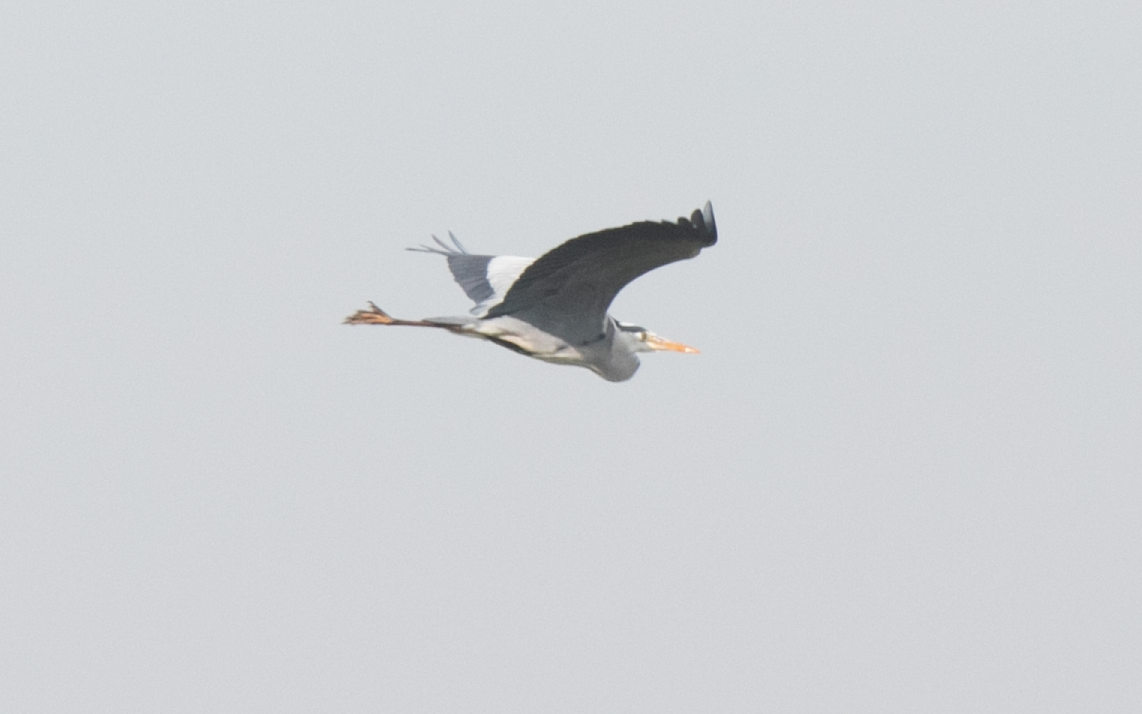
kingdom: Animalia
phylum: Chordata
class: Aves
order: Pelecaniformes
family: Ardeidae
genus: Ardea
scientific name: Ardea cinerea
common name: Grey heron
